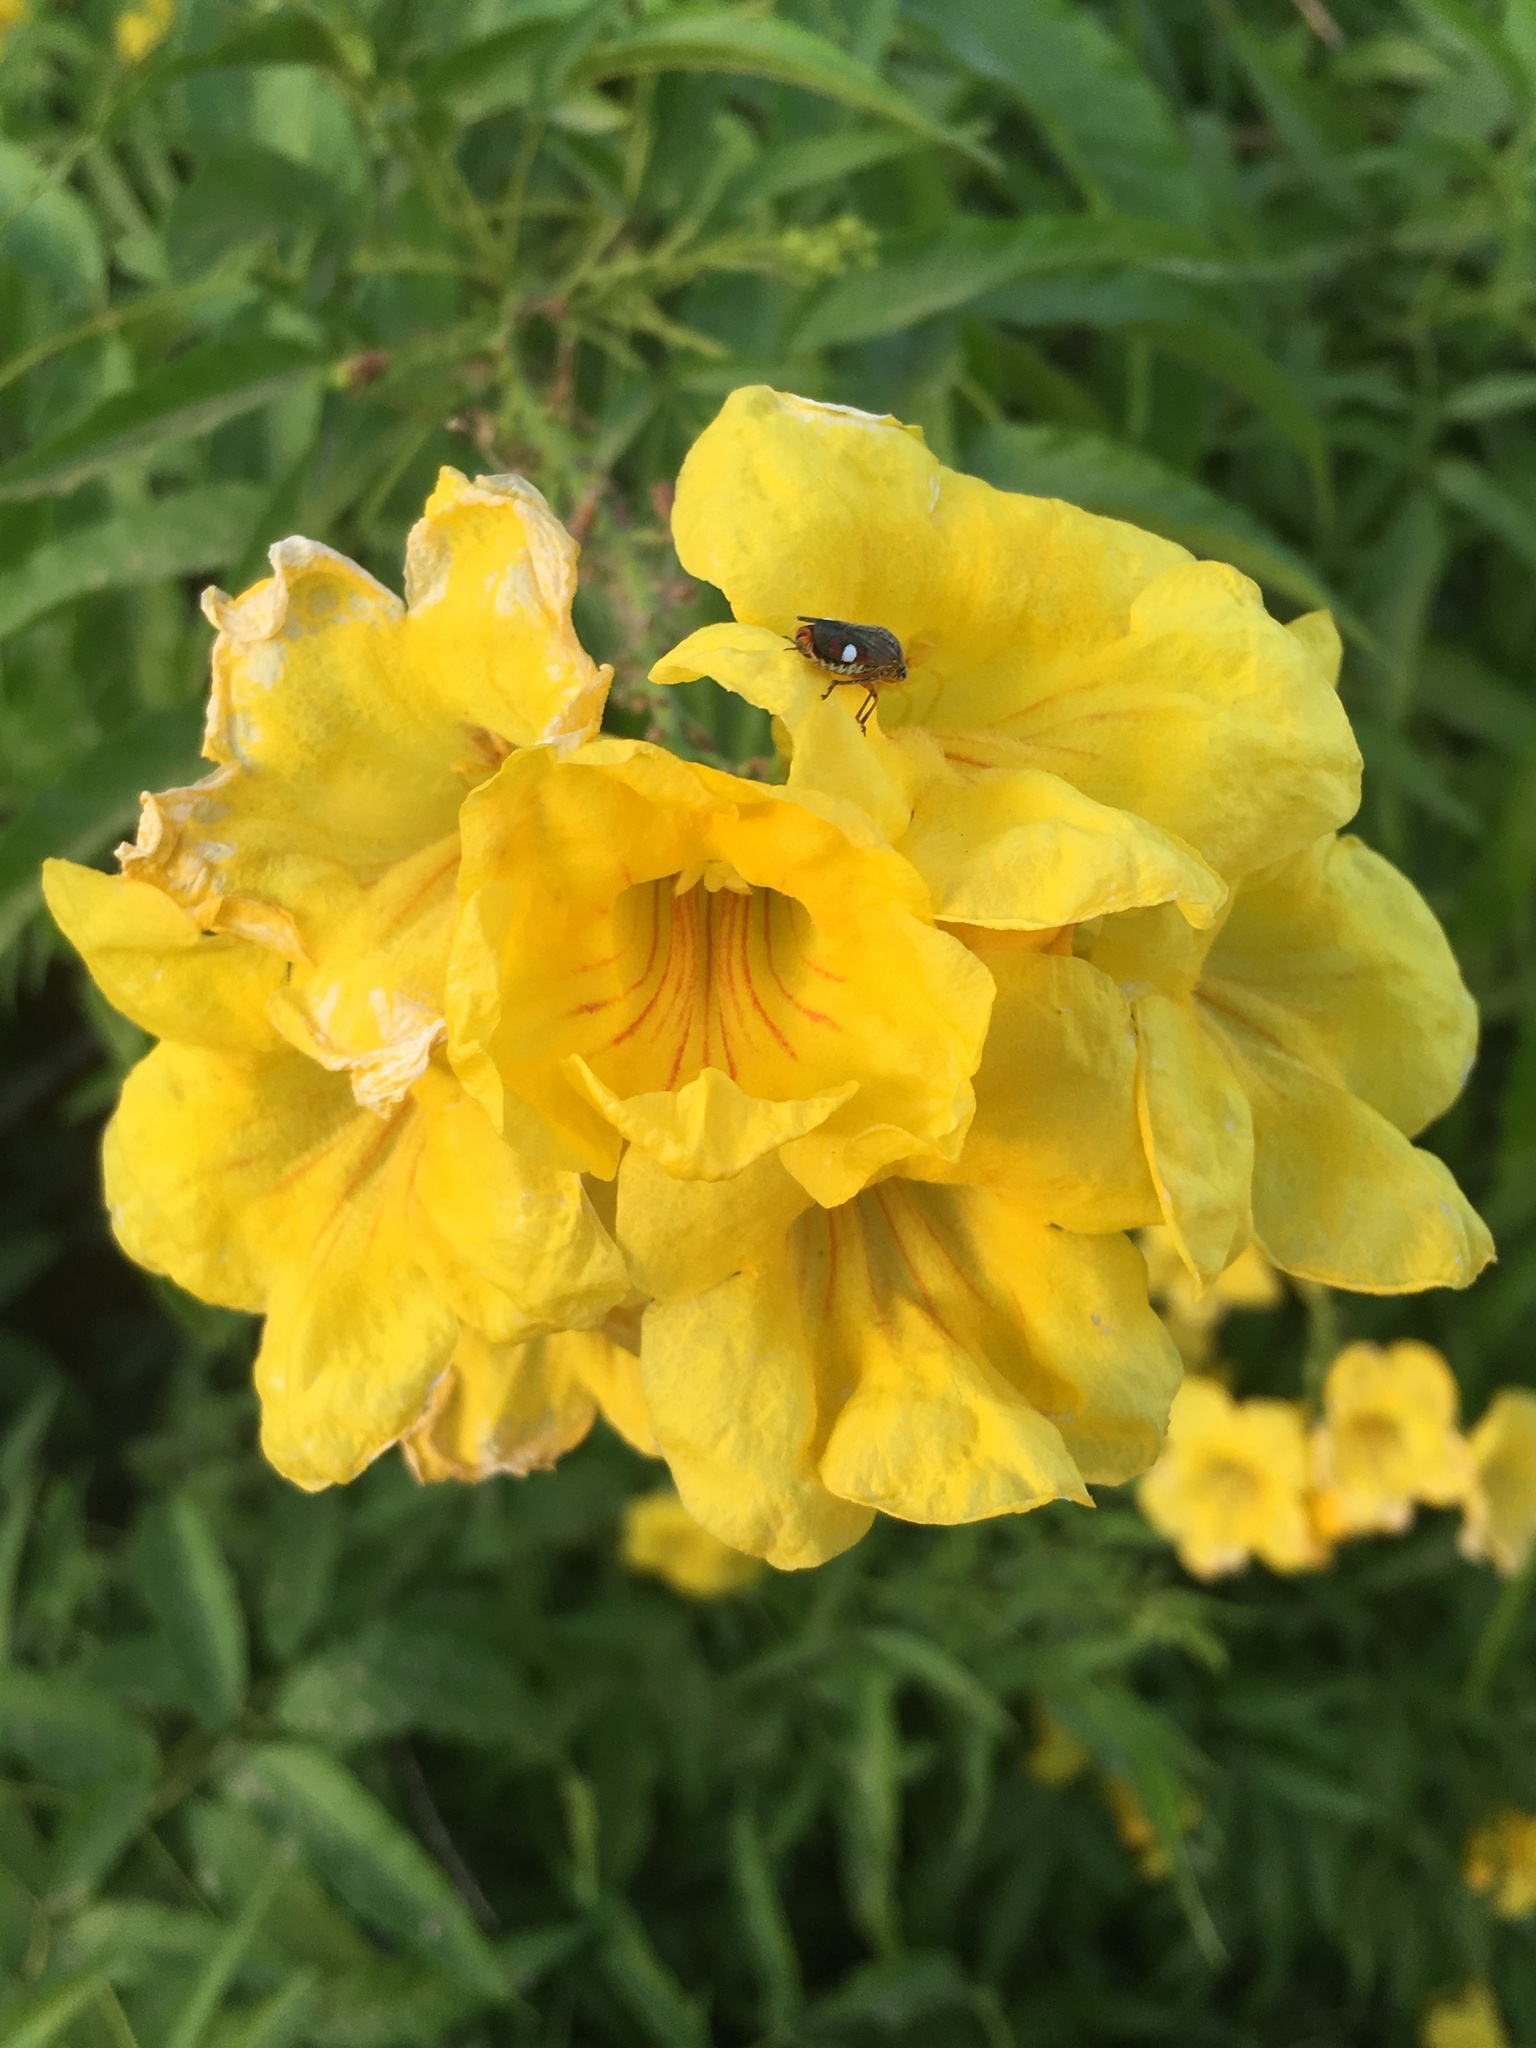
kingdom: Plantae
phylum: Tracheophyta
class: Magnoliopsida
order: Lamiales
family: Bignoniaceae
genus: Tecoma
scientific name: Tecoma stans
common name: Yellow trumpetbush
